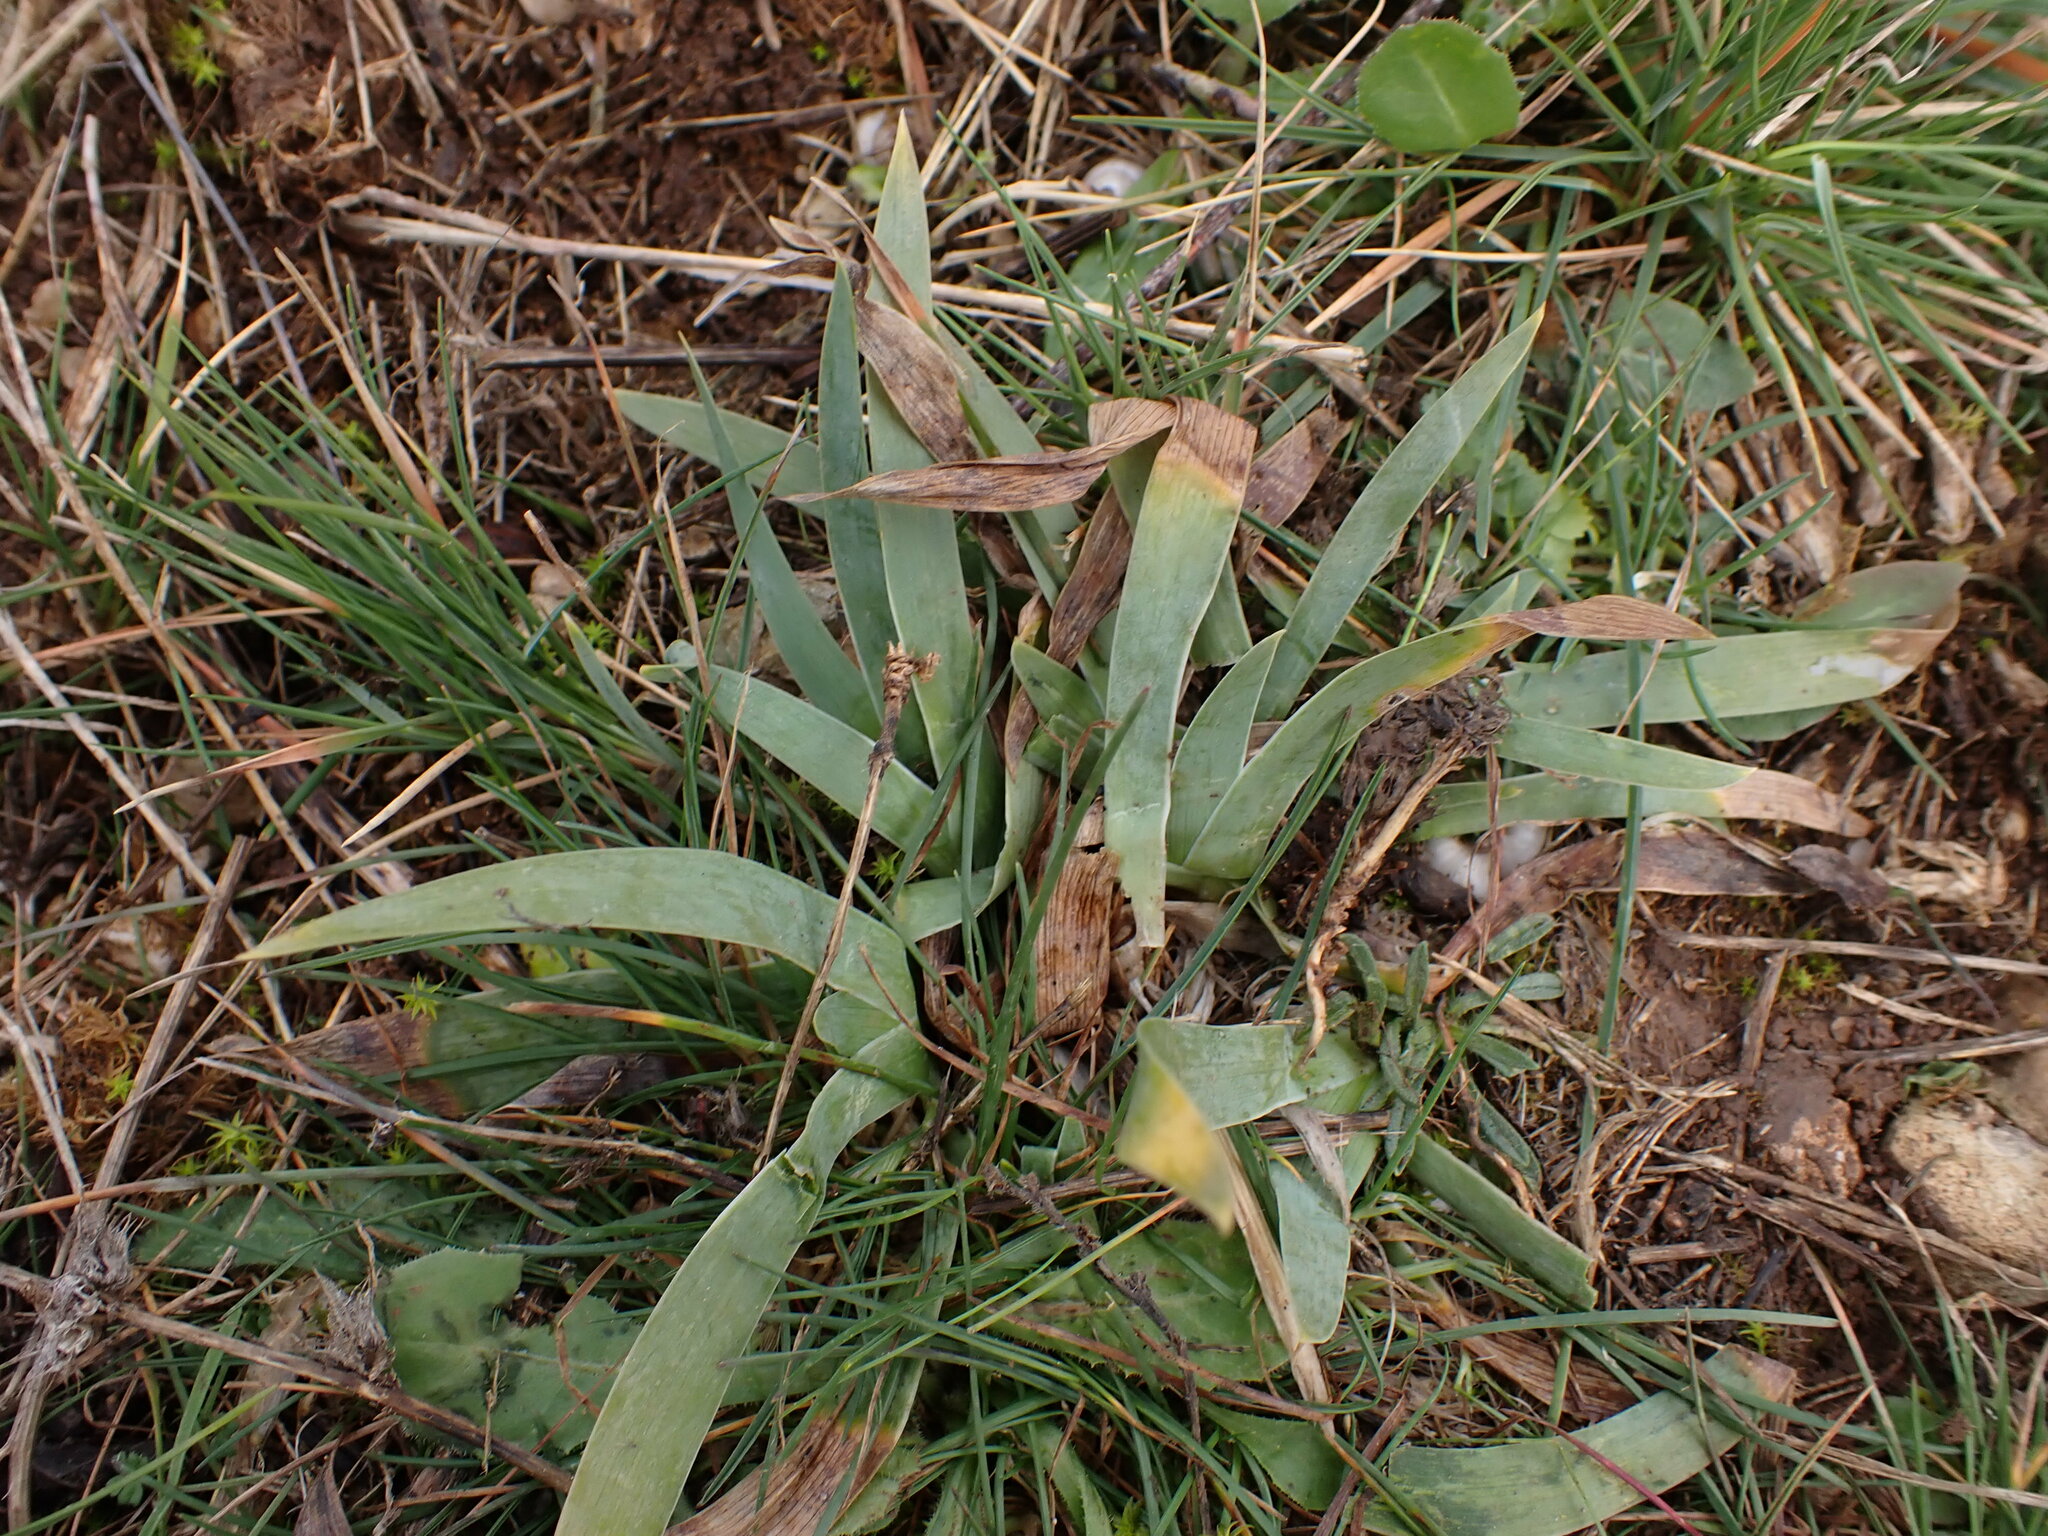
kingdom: Plantae
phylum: Tracheophyta
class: Liliopsida
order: Asparagales
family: Iridaceae
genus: Iris
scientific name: Iris lutescens
